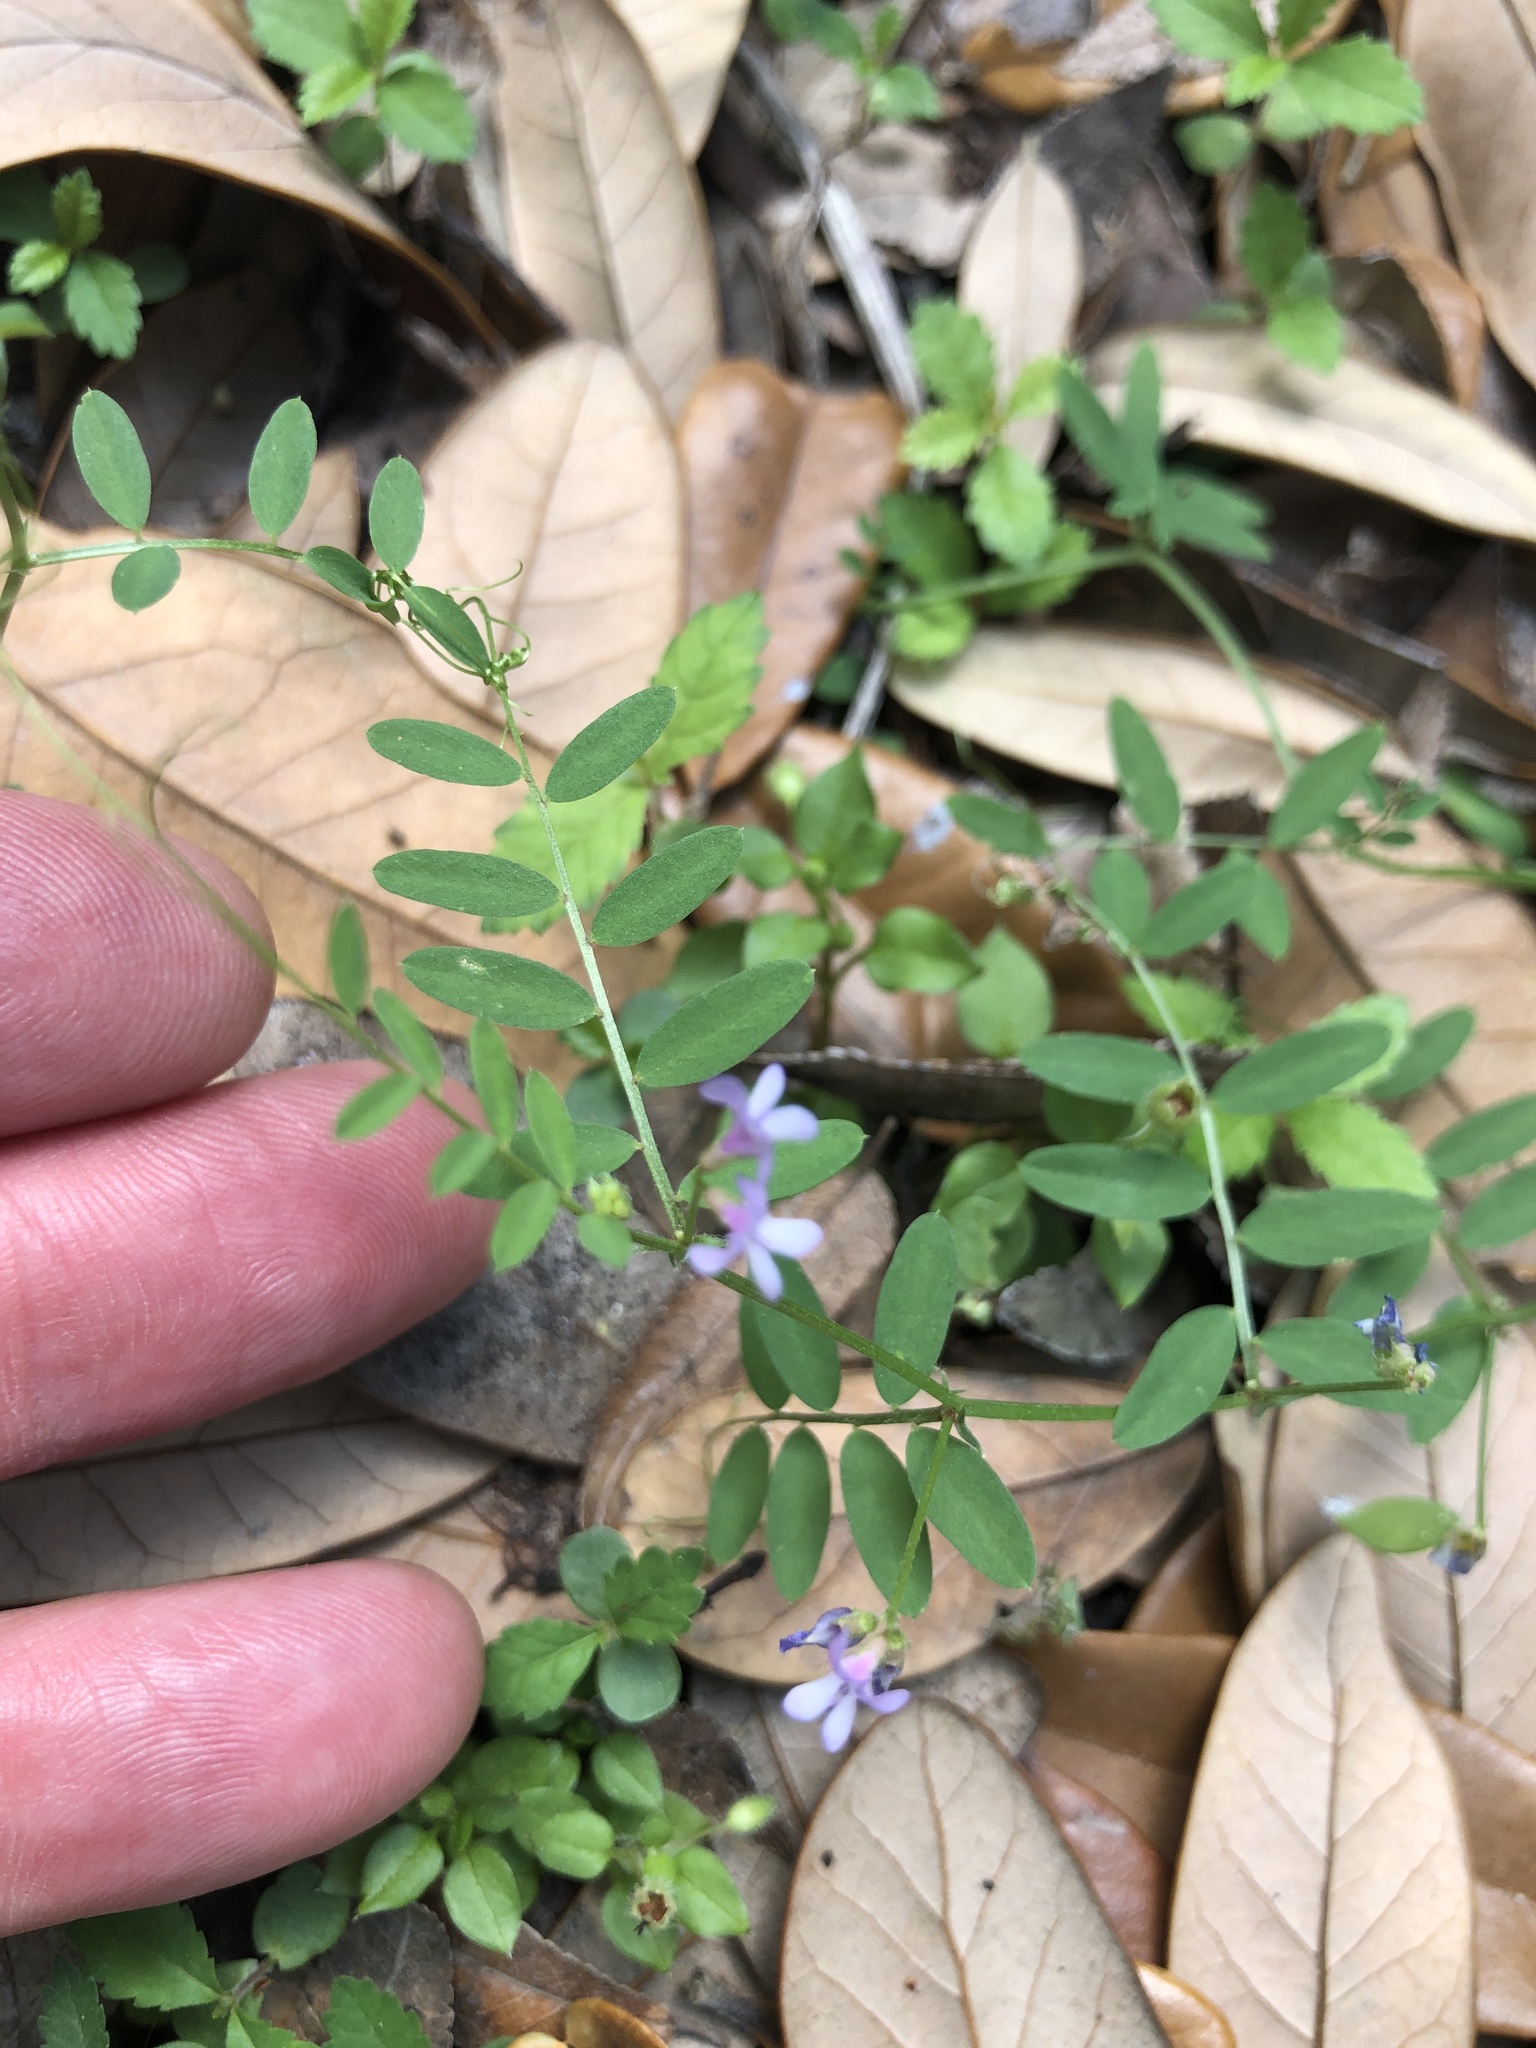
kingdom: Plantae
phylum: Tracheophyta
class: Magnoliopsida
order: Fabales
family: Fabaceae
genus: Vicia
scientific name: Vicia ludoviciana
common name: Louisiana vetch
